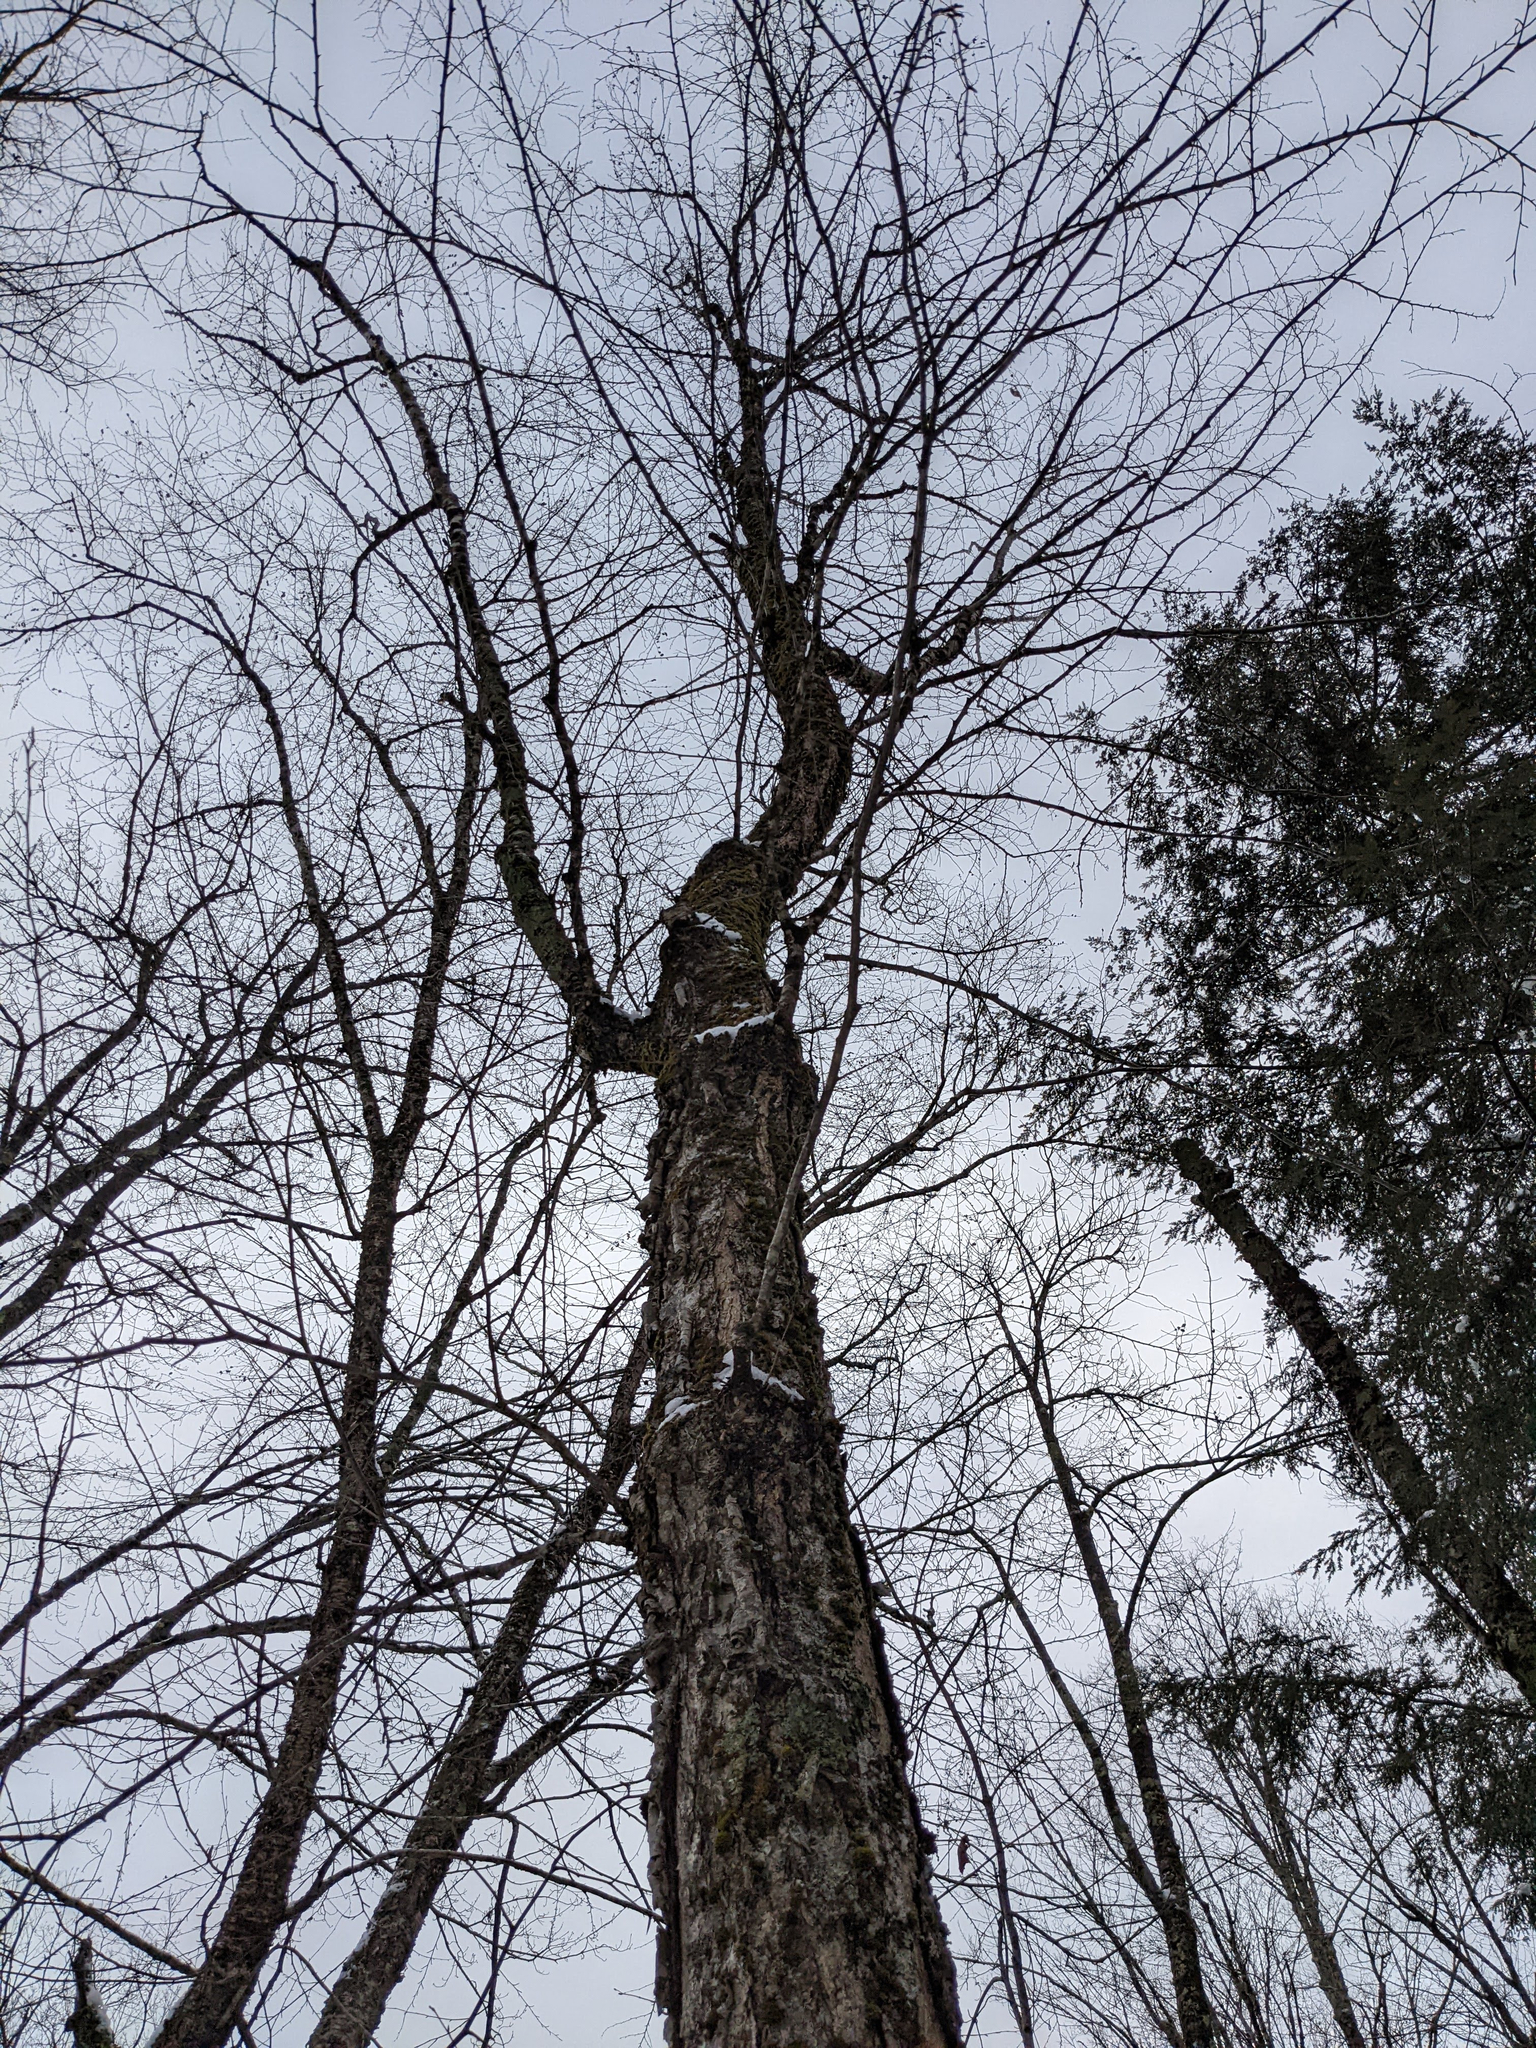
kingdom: Plantae
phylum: Tracheophyta
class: Magnoliopsida
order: Fagales
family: Betulaceae
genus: Betula
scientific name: Betula alleghaniensis
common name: Yellow birch
